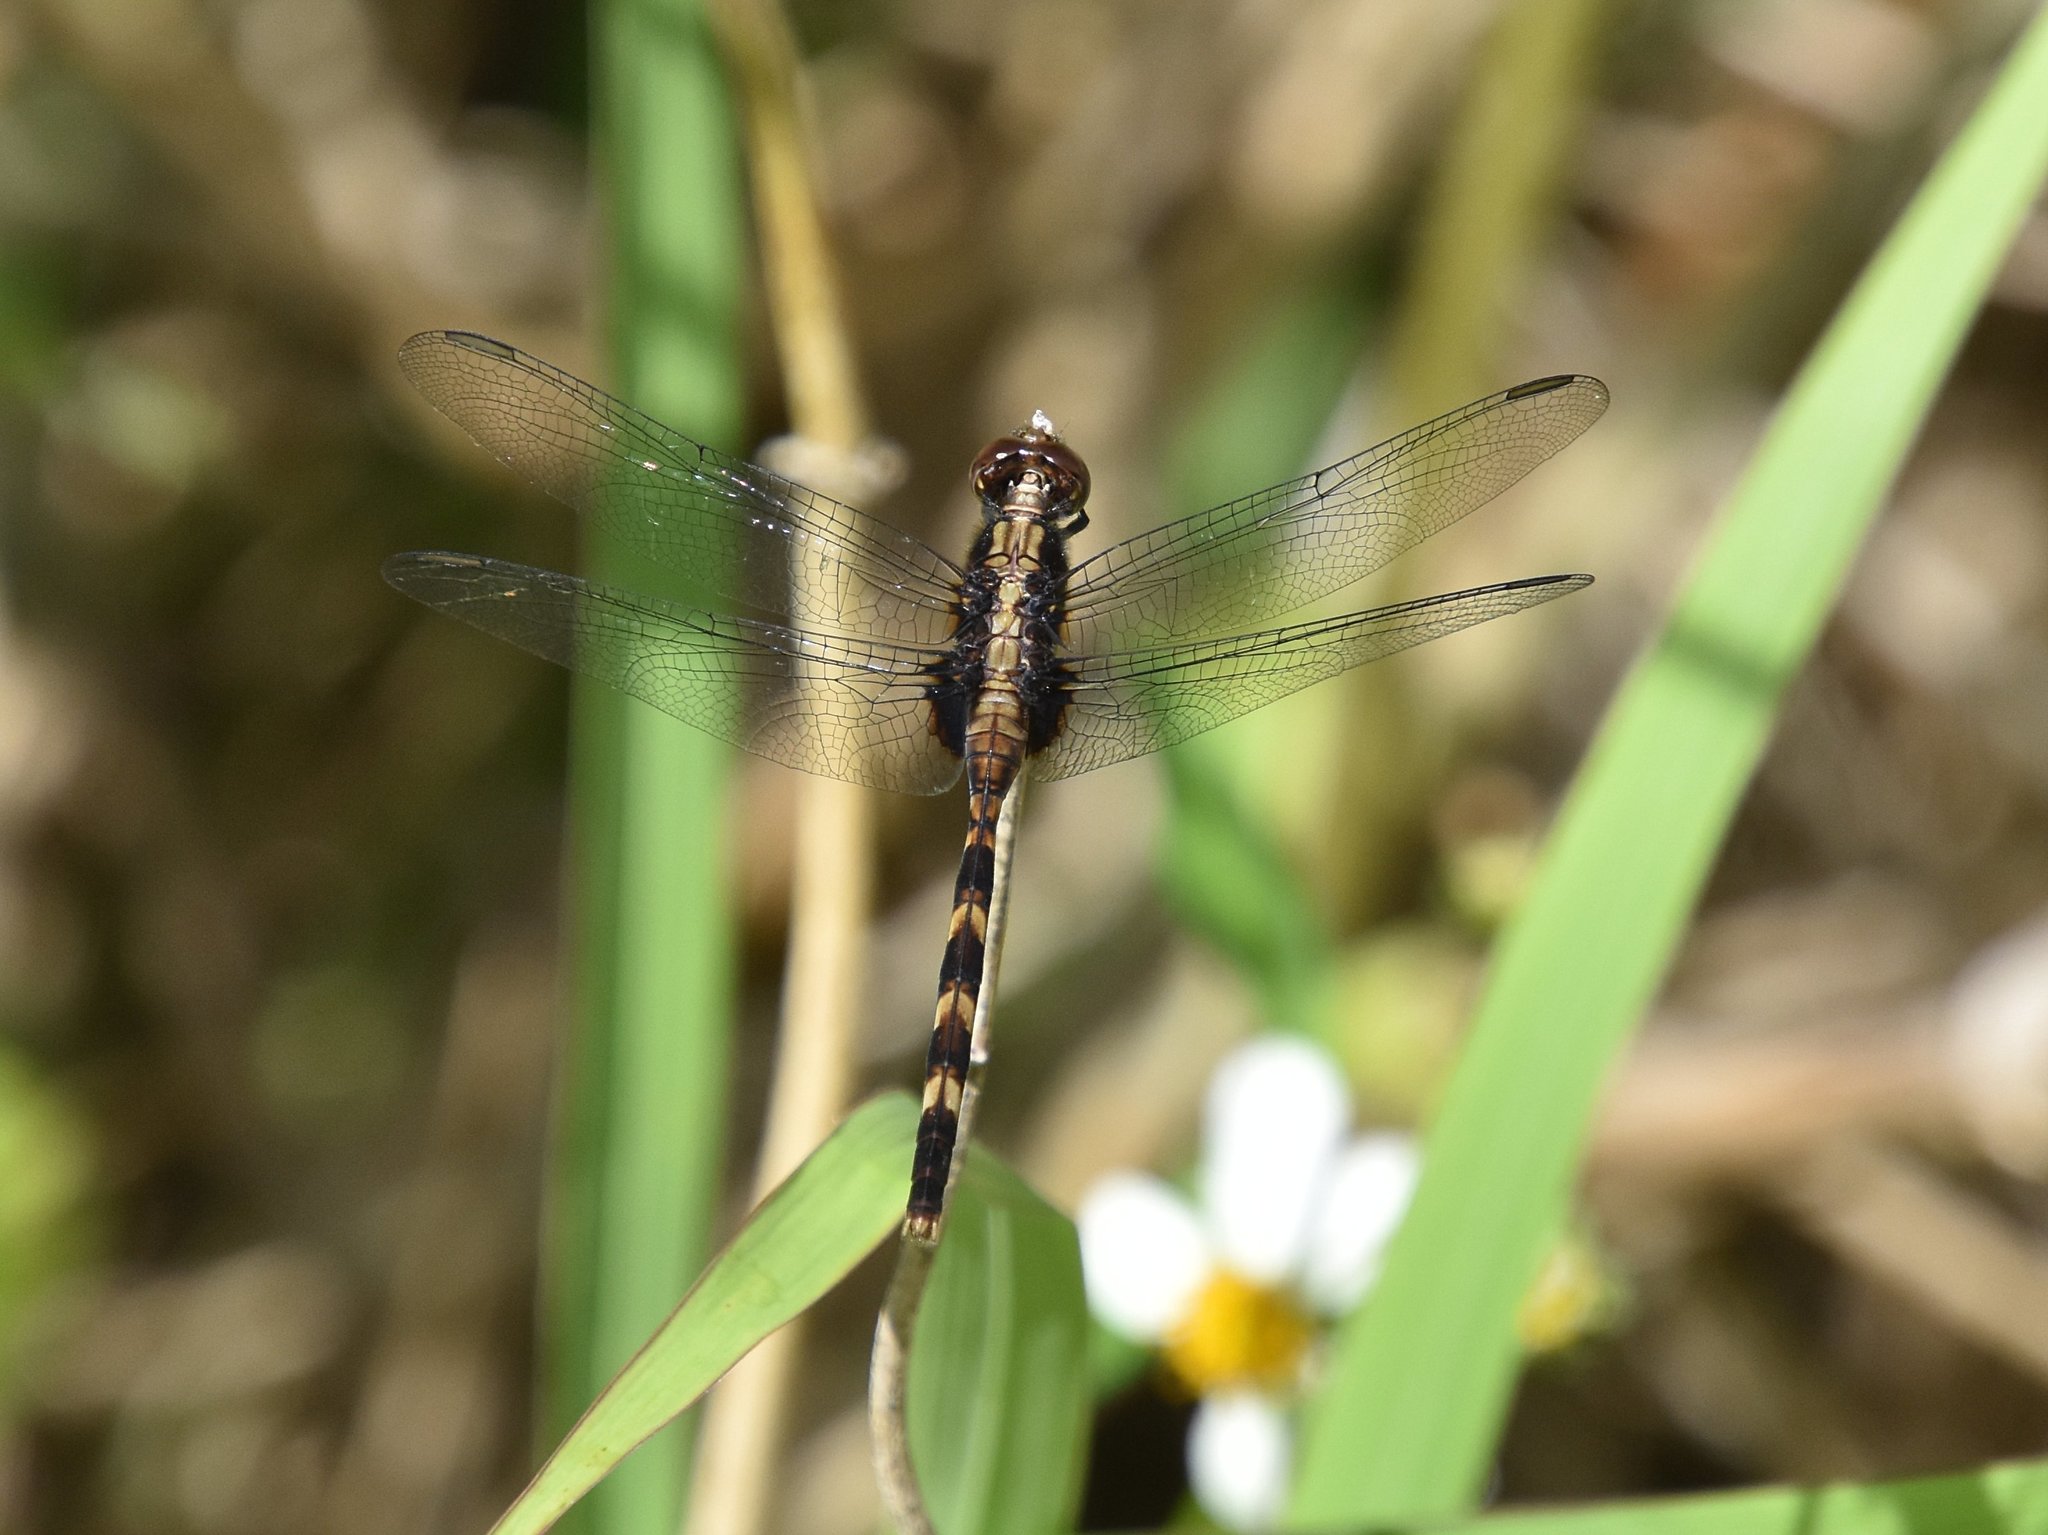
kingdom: Animalia
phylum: Arthropoda
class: Insecta
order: Odonata
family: Libellulidae
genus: Erythemis
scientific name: Erythemis plebeja
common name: Pin-tailed pondhawk
